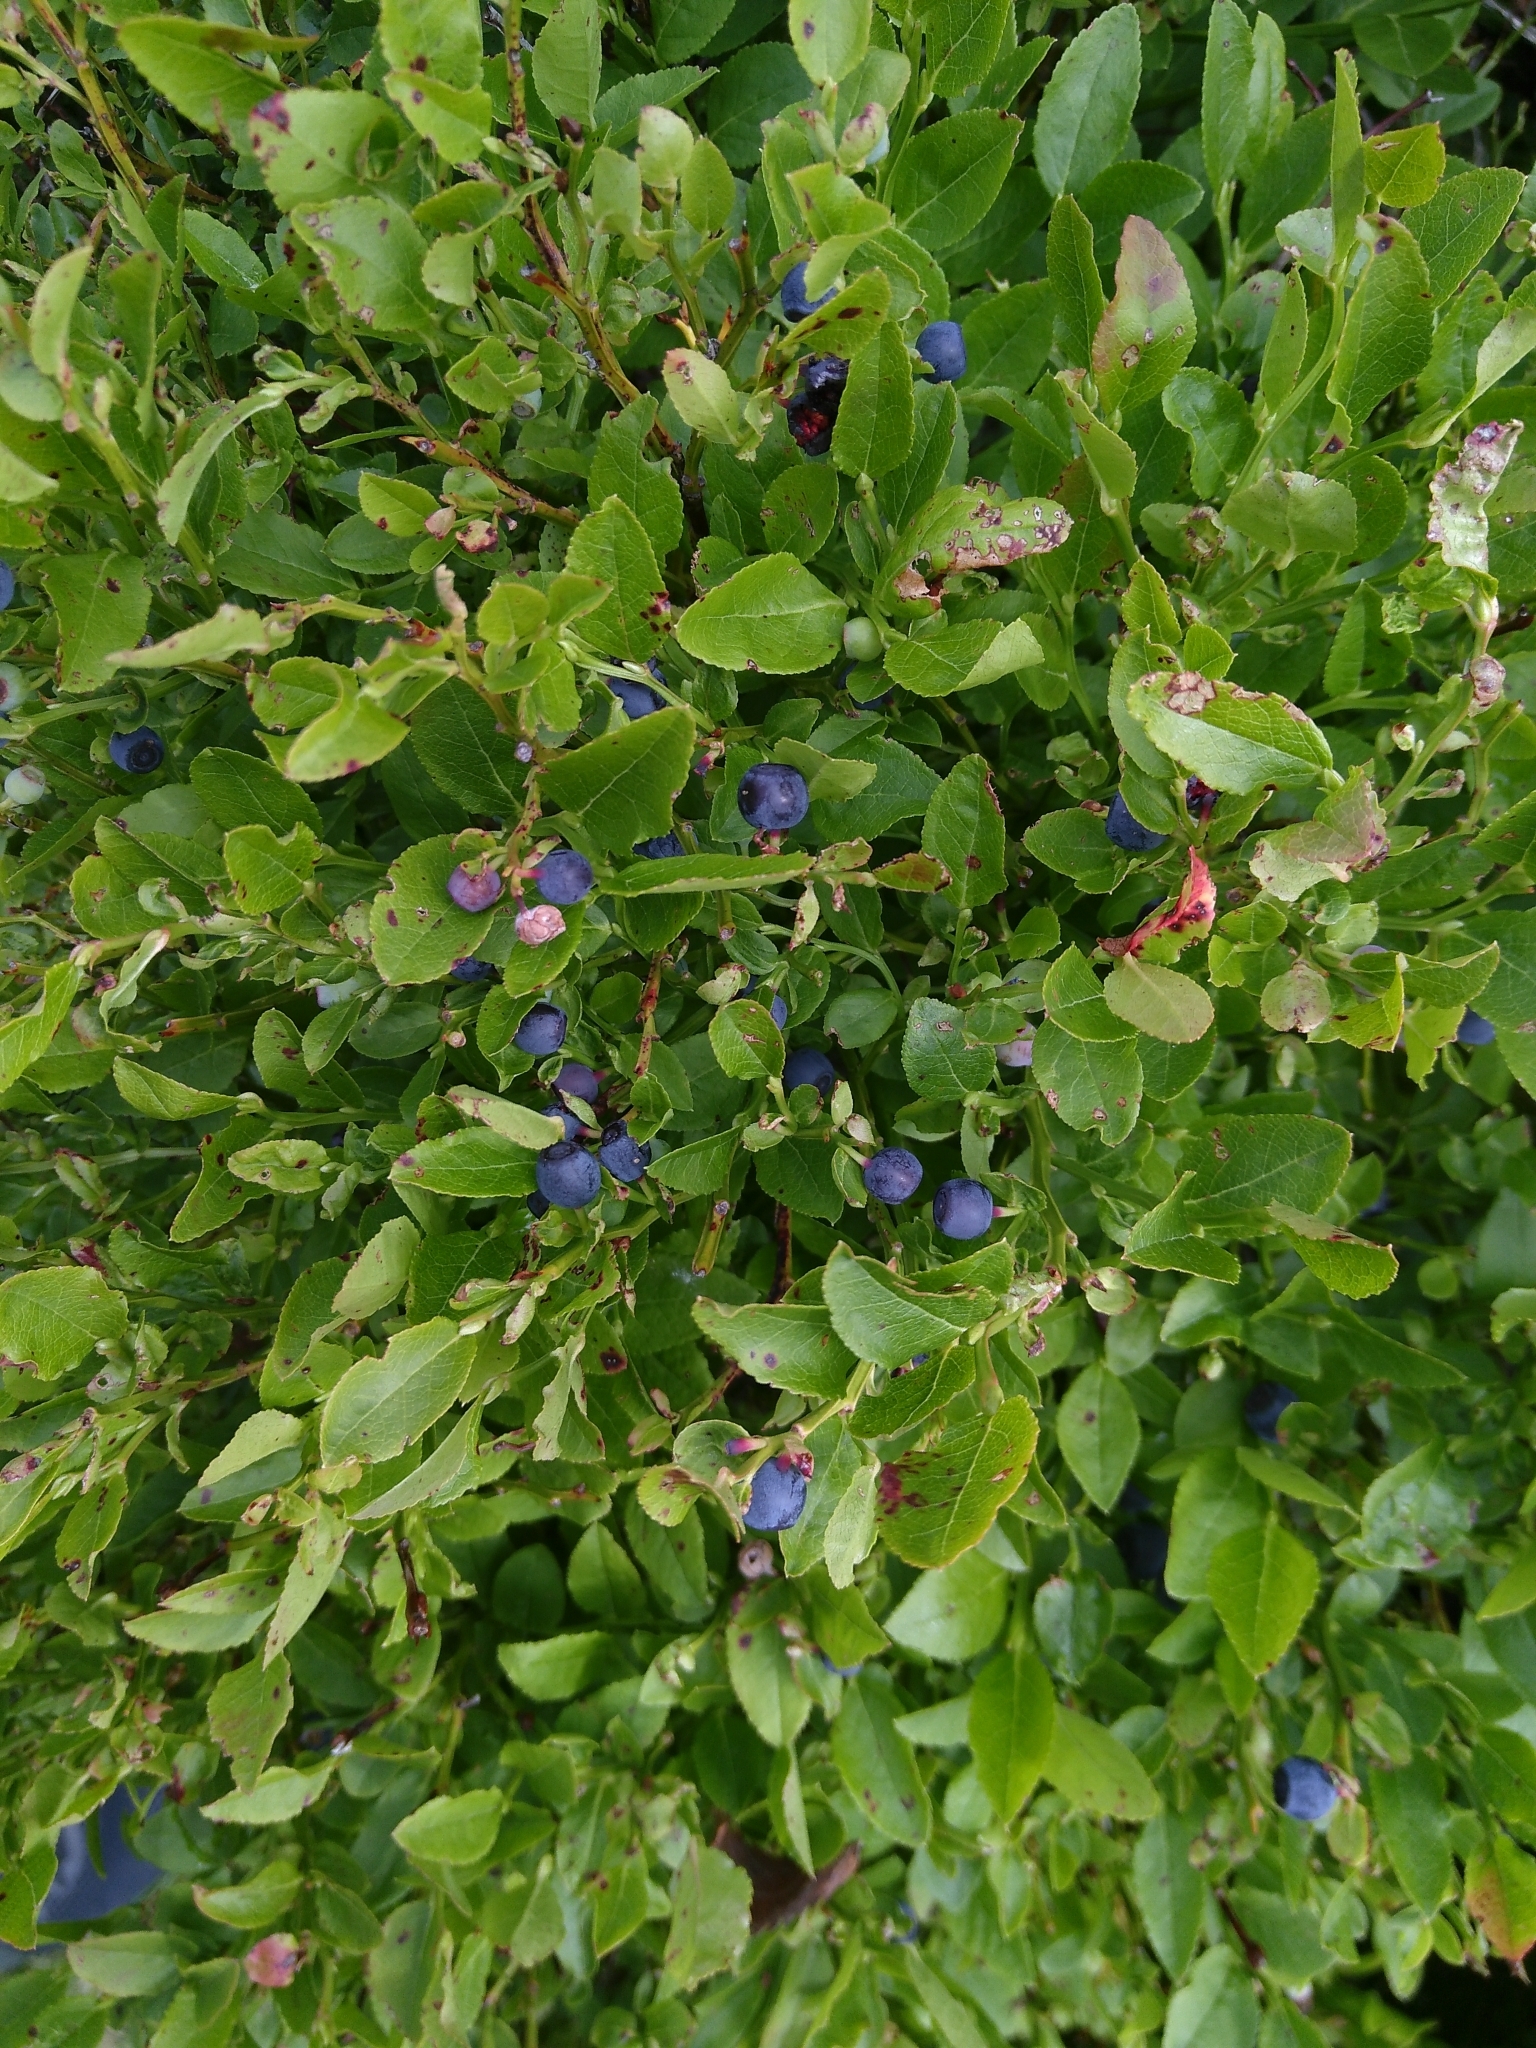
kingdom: Plantae
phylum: Tracheophyta
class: Magnoliopsida
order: Ericales
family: Ericaceae
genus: Vaccinium
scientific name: Vaccinium myrtillus
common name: Bilberry
